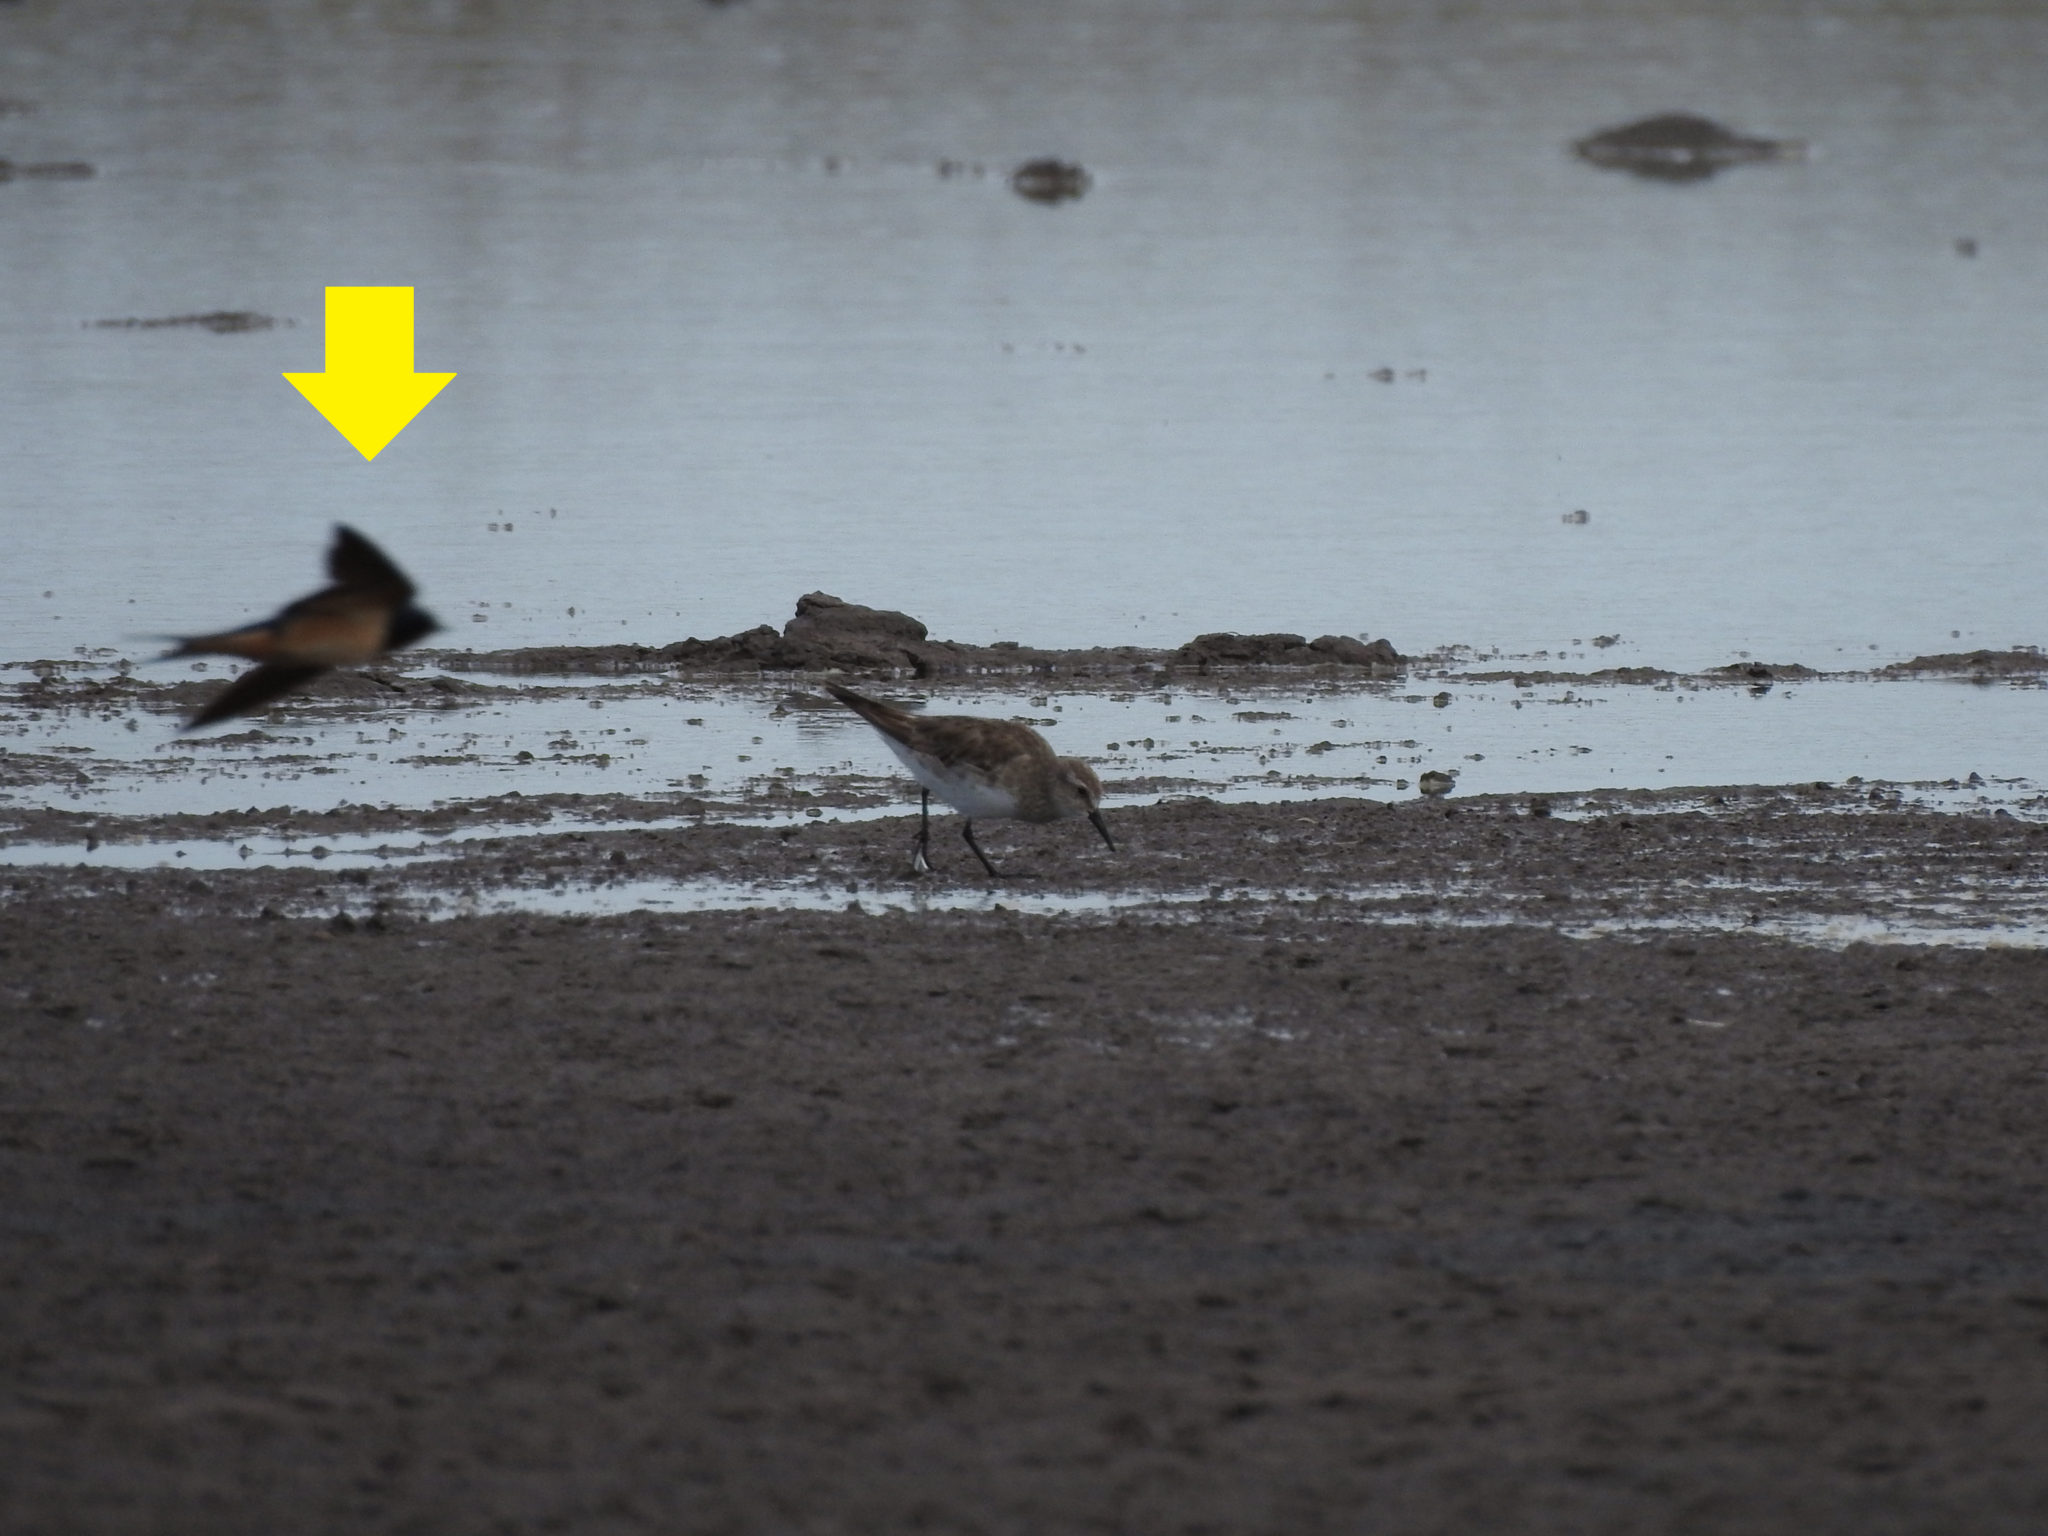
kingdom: Animalia
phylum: Chordata
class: Aves
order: Passeriformes
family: Hirundinidae
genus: Hirundo
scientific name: Hirundo rustica
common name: Barn swallow
